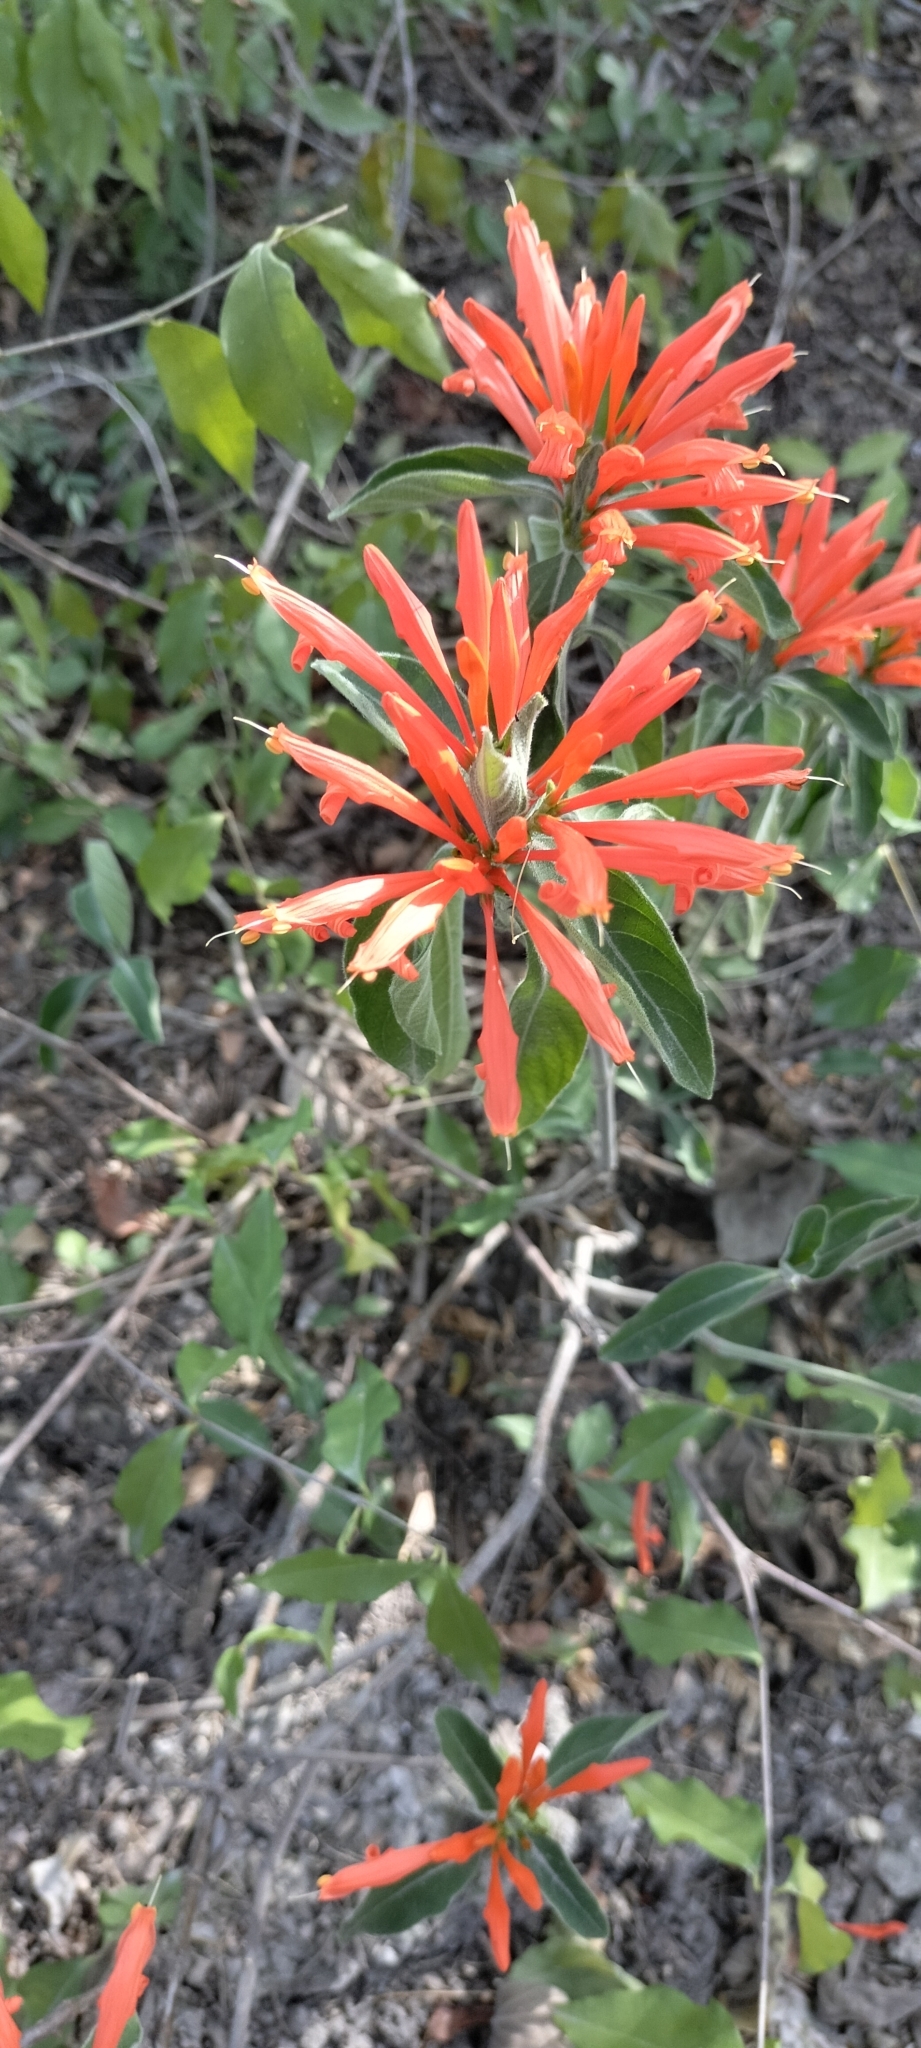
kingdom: Plantae
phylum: Tracheophyta
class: Magnoliopsida
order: Lamiales
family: Acanthaceae
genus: Justicia
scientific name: Justicia spicigera
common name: Mohintli
